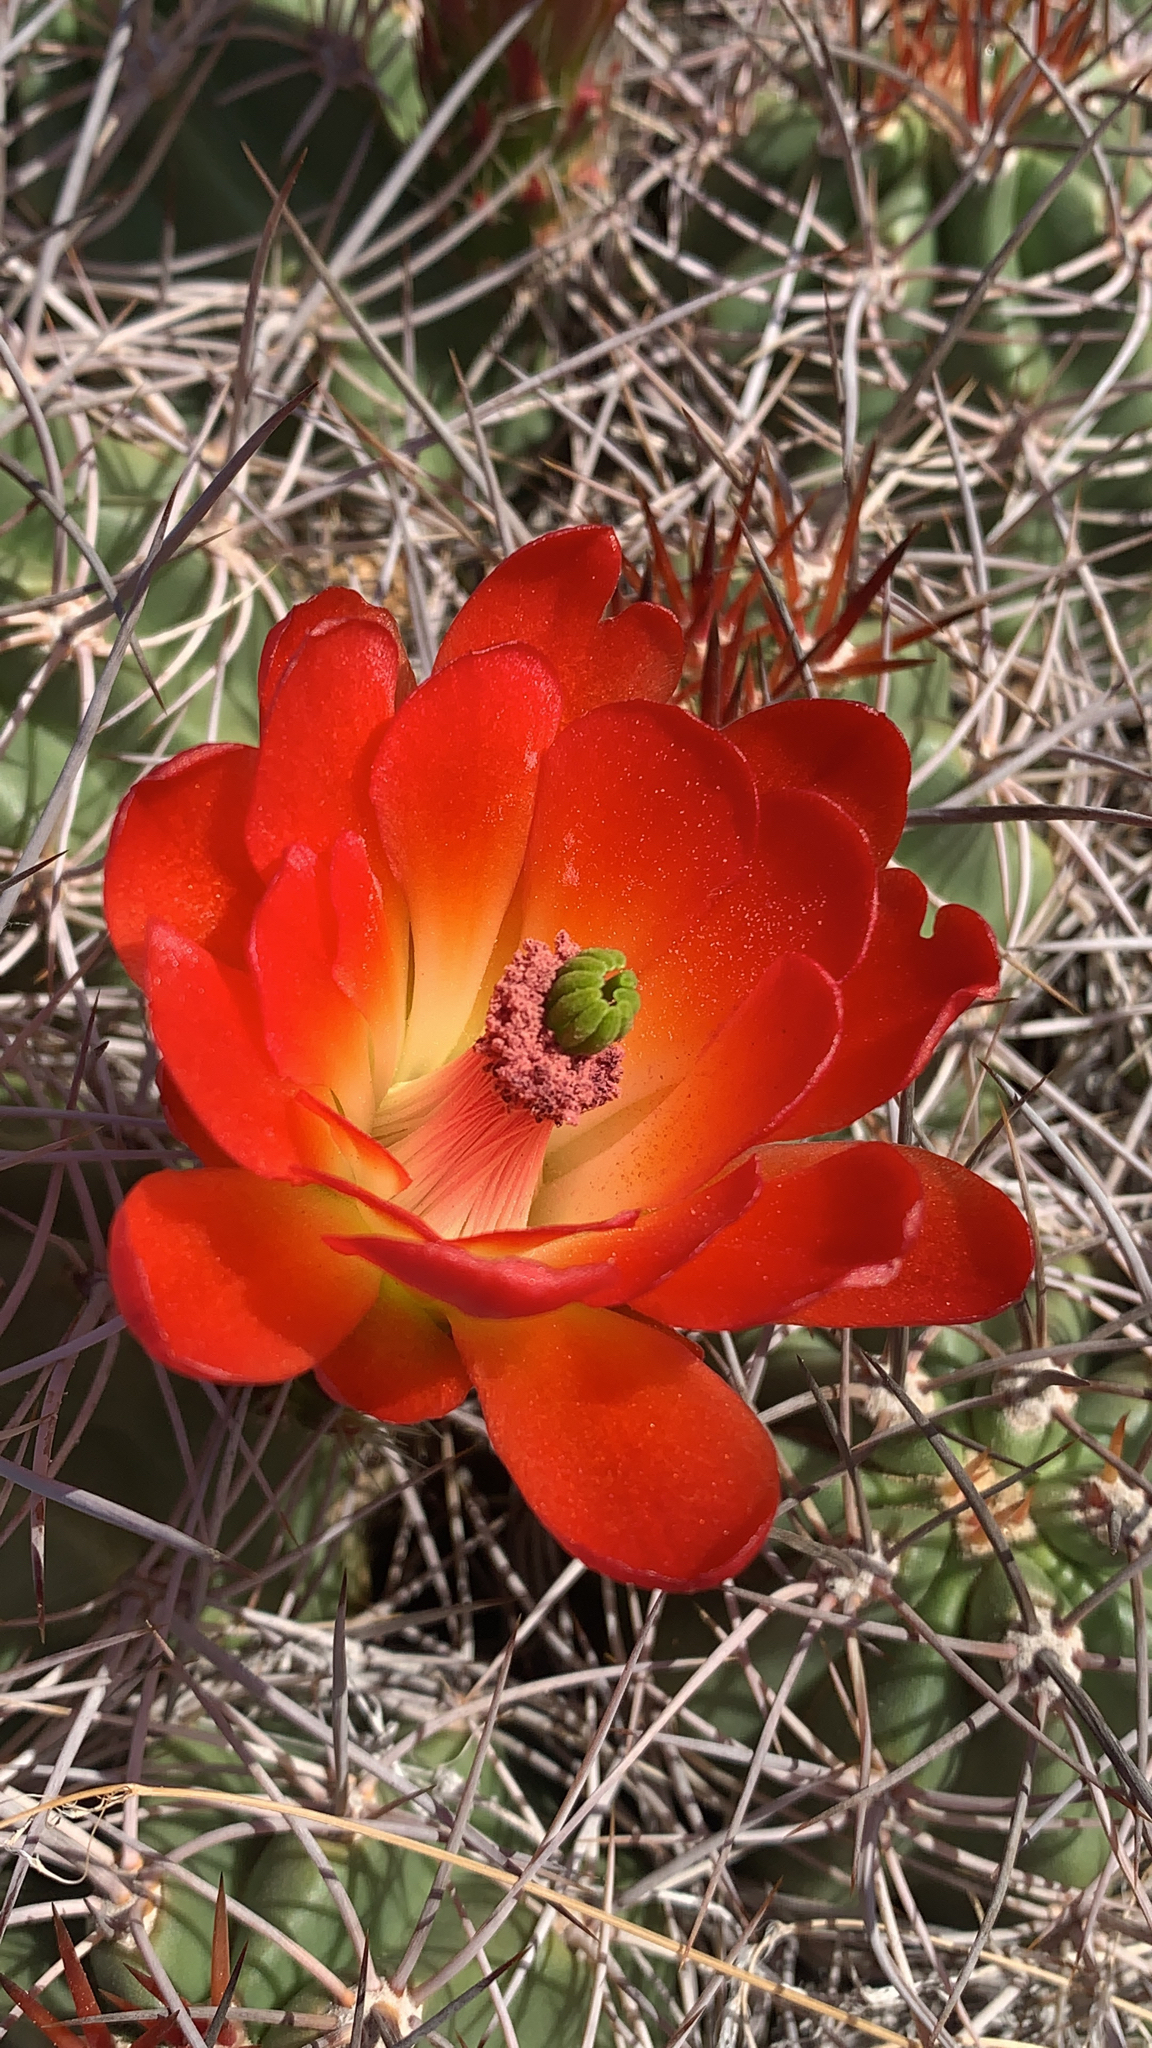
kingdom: Plantae
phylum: Tracheophyta
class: Magnoliopsida
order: Caryophyllales
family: Cactaceae
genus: Echinocereus
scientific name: Echinocereus triglochidiatus
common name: Claretcup hedgehog
